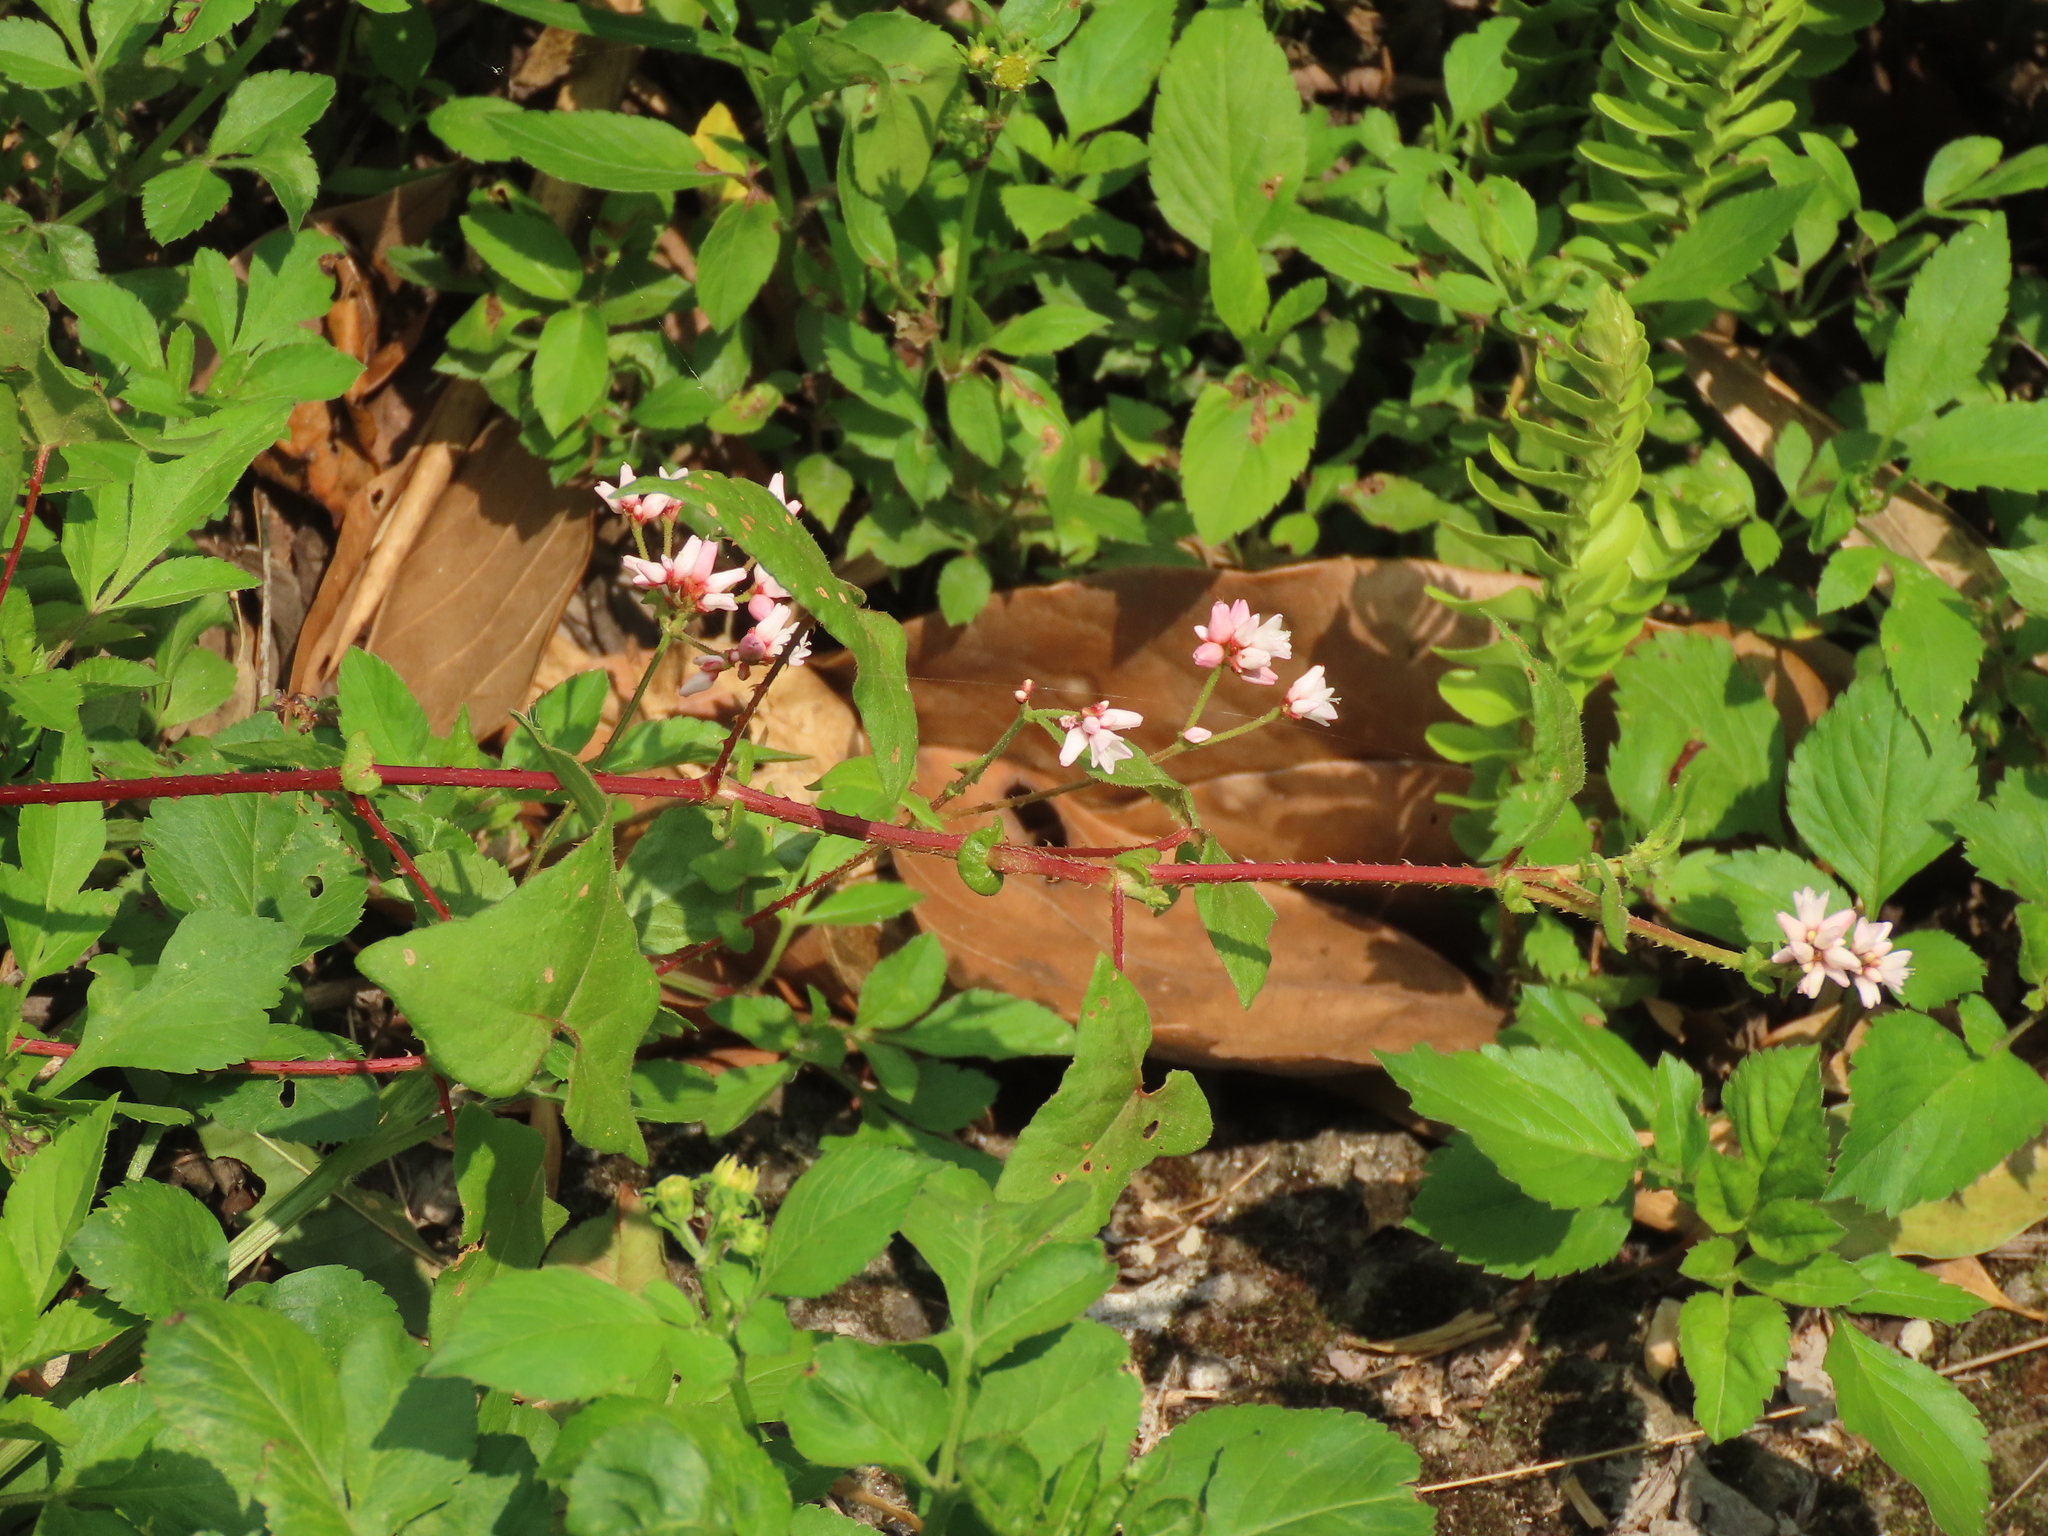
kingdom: Plantae
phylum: Tracheophyta
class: Magnoliopsida
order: Caryophyllales
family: Polygonaceae
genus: Persicaria
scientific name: Persicaria senticosa
